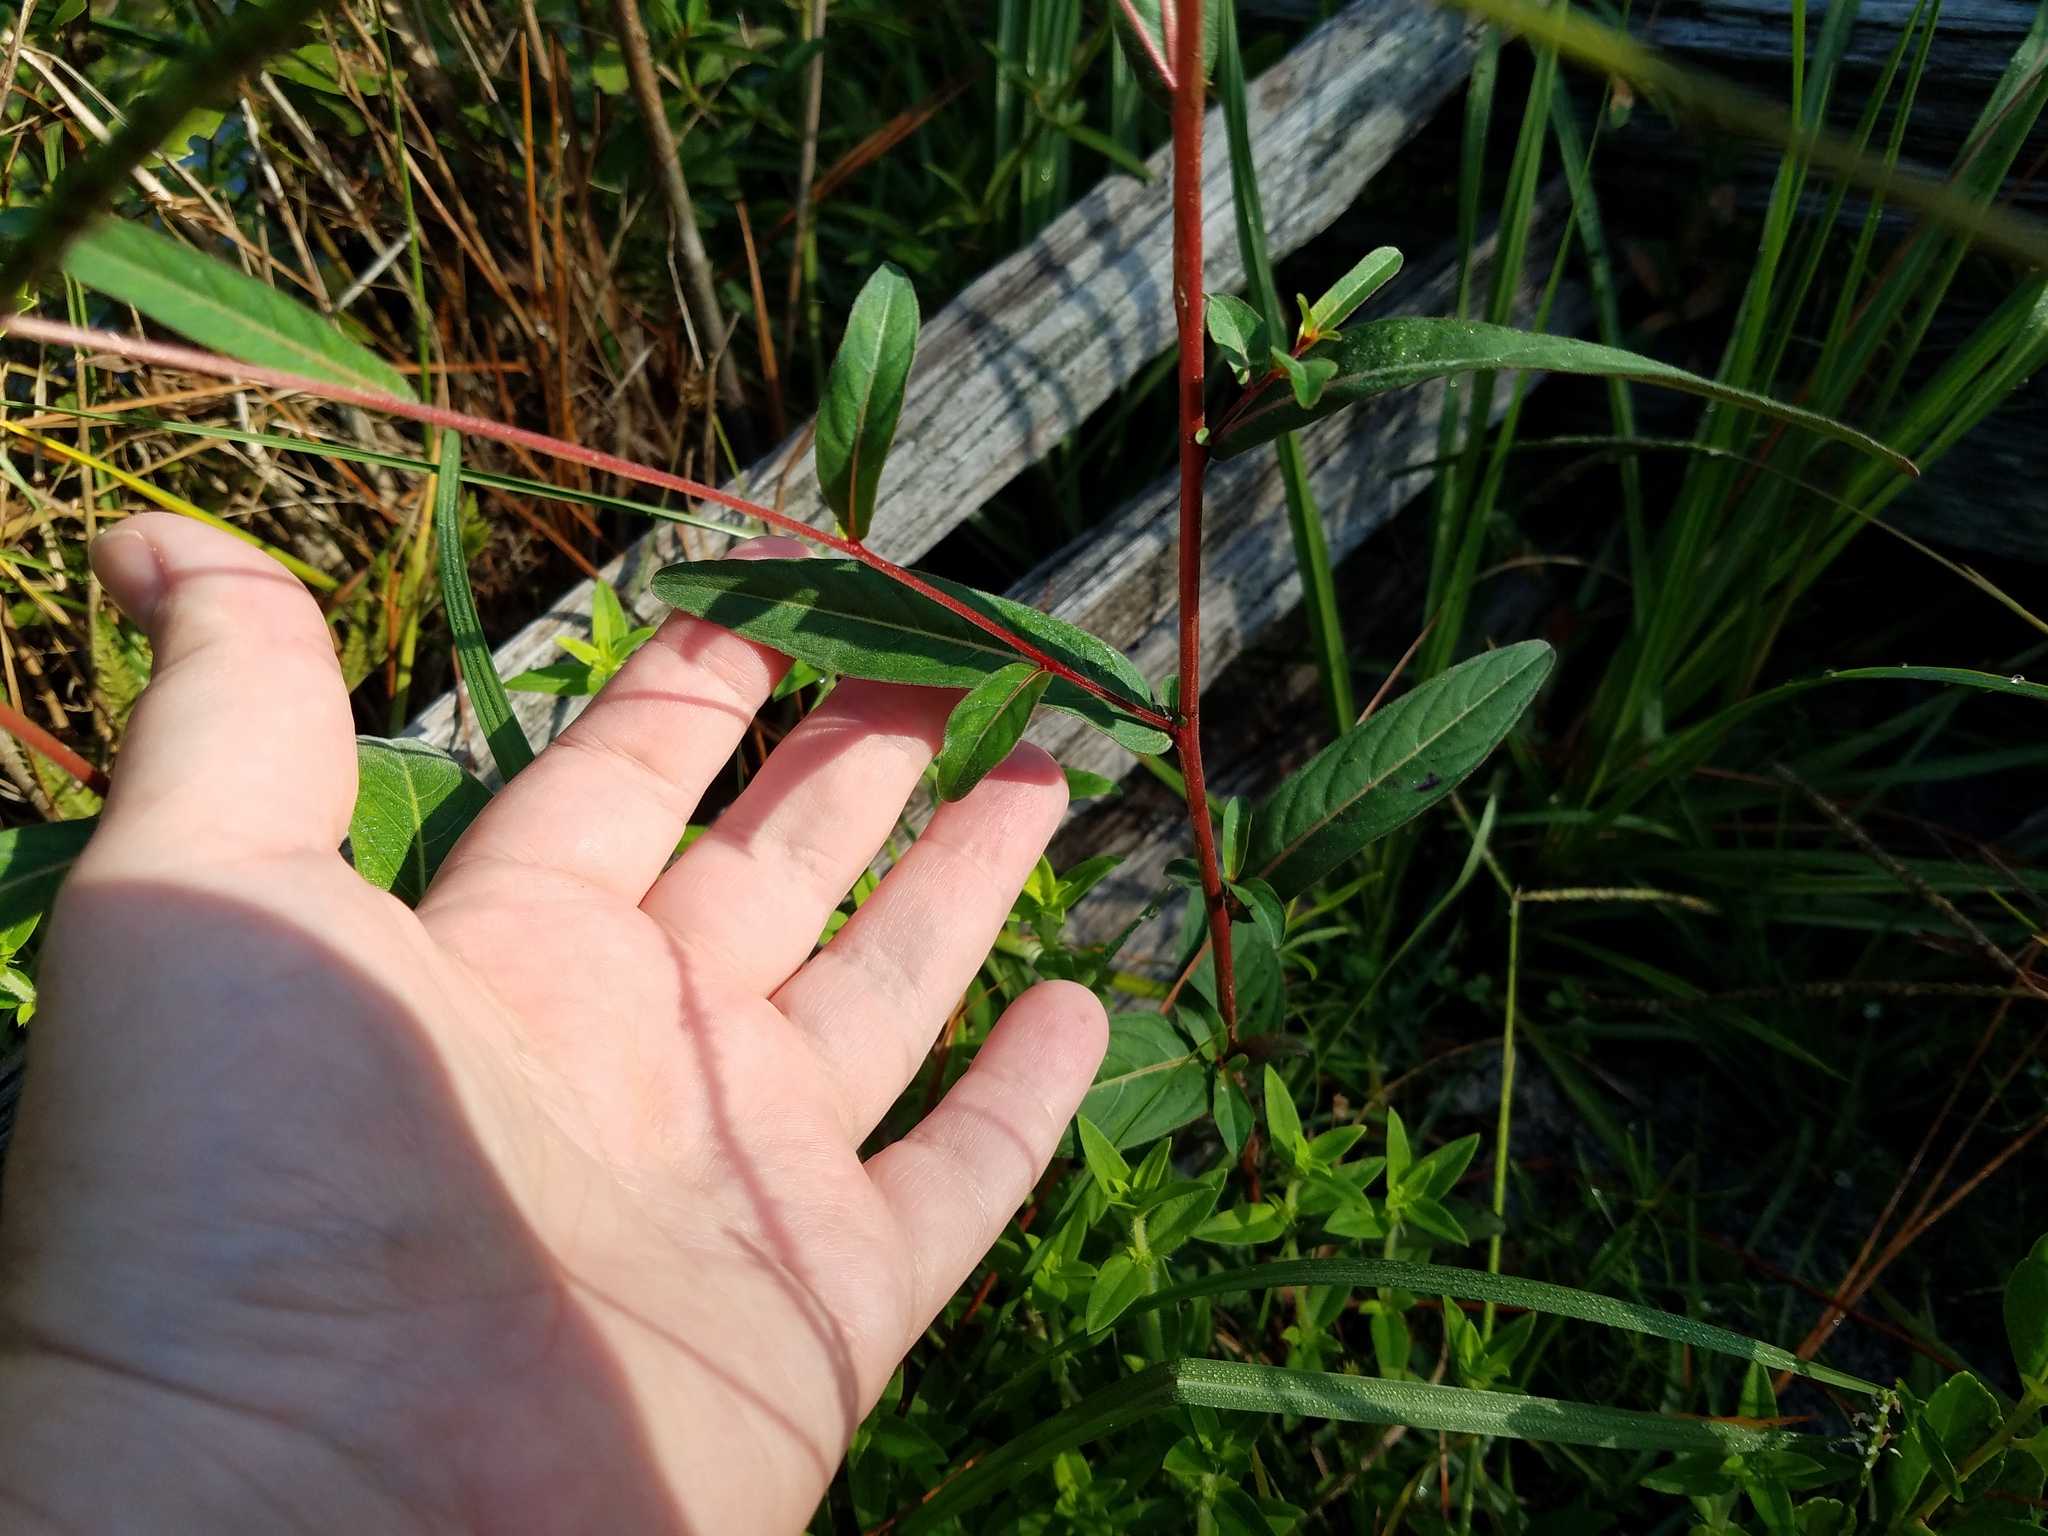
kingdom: Plantae
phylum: Tracheophyta
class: Magnoliopsida
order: Myrtales
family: Onagraceae
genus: Ludwigia
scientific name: Ludwigia maritima
